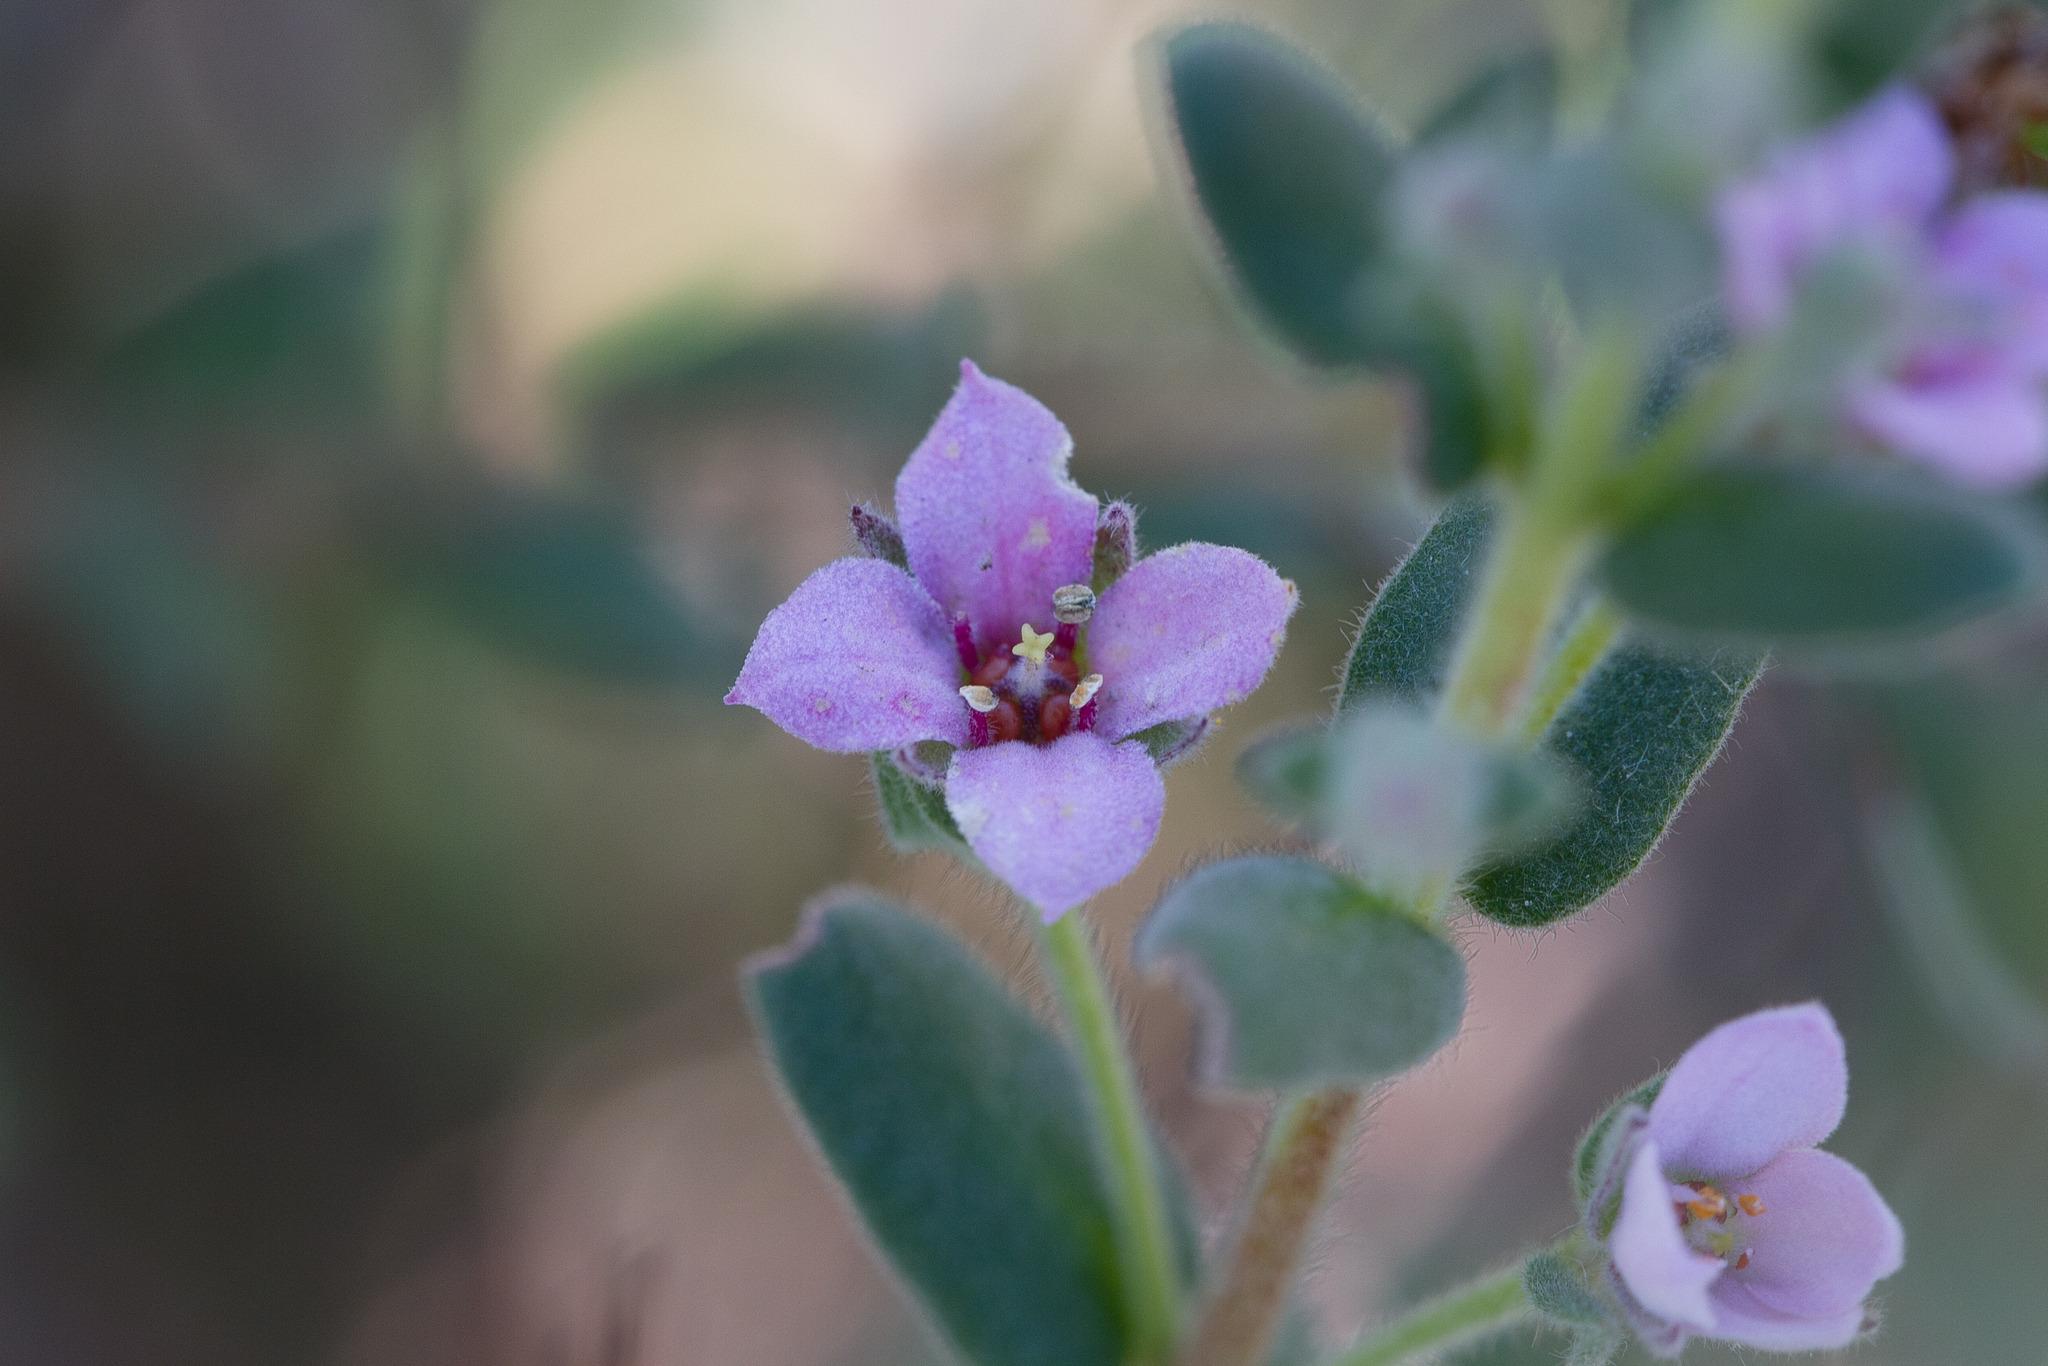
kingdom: Plantae
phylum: Tracheophyta
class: Magnoliopsida
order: Sapindales
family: Rutaceae
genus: Zieria
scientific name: Zieria veronicea
